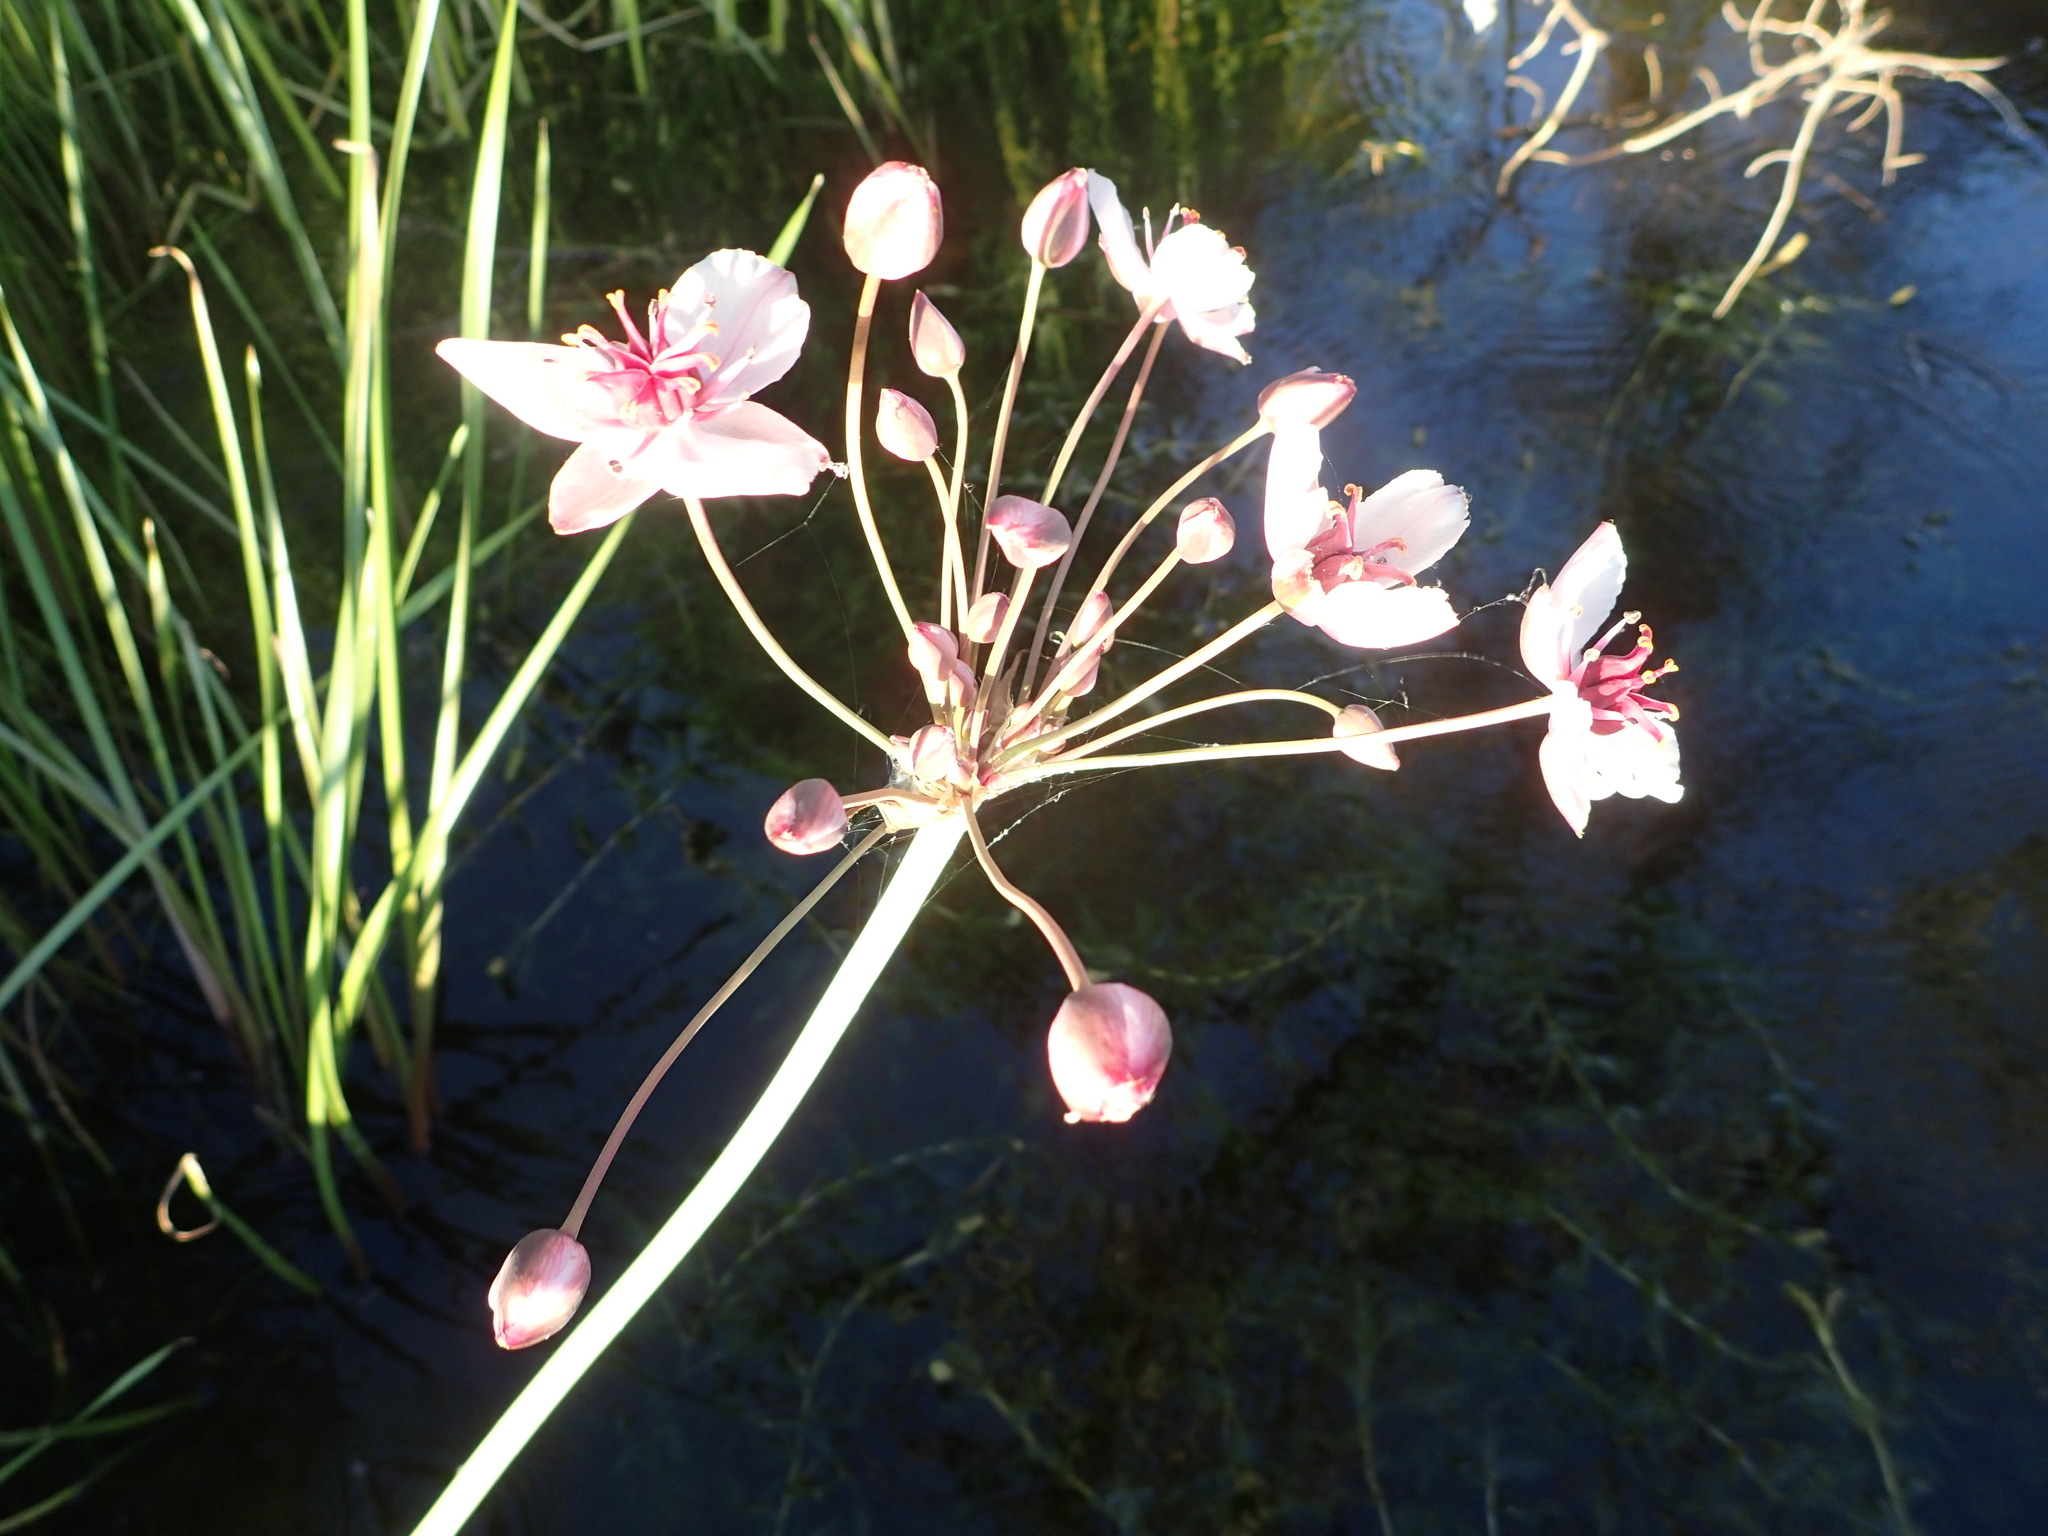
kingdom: Plantae
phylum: Tracheophyta
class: Liliopsida
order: Alismatales
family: Butomaceae
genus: Butomus
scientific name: Butomus umbellatus
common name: Flowering-rush
